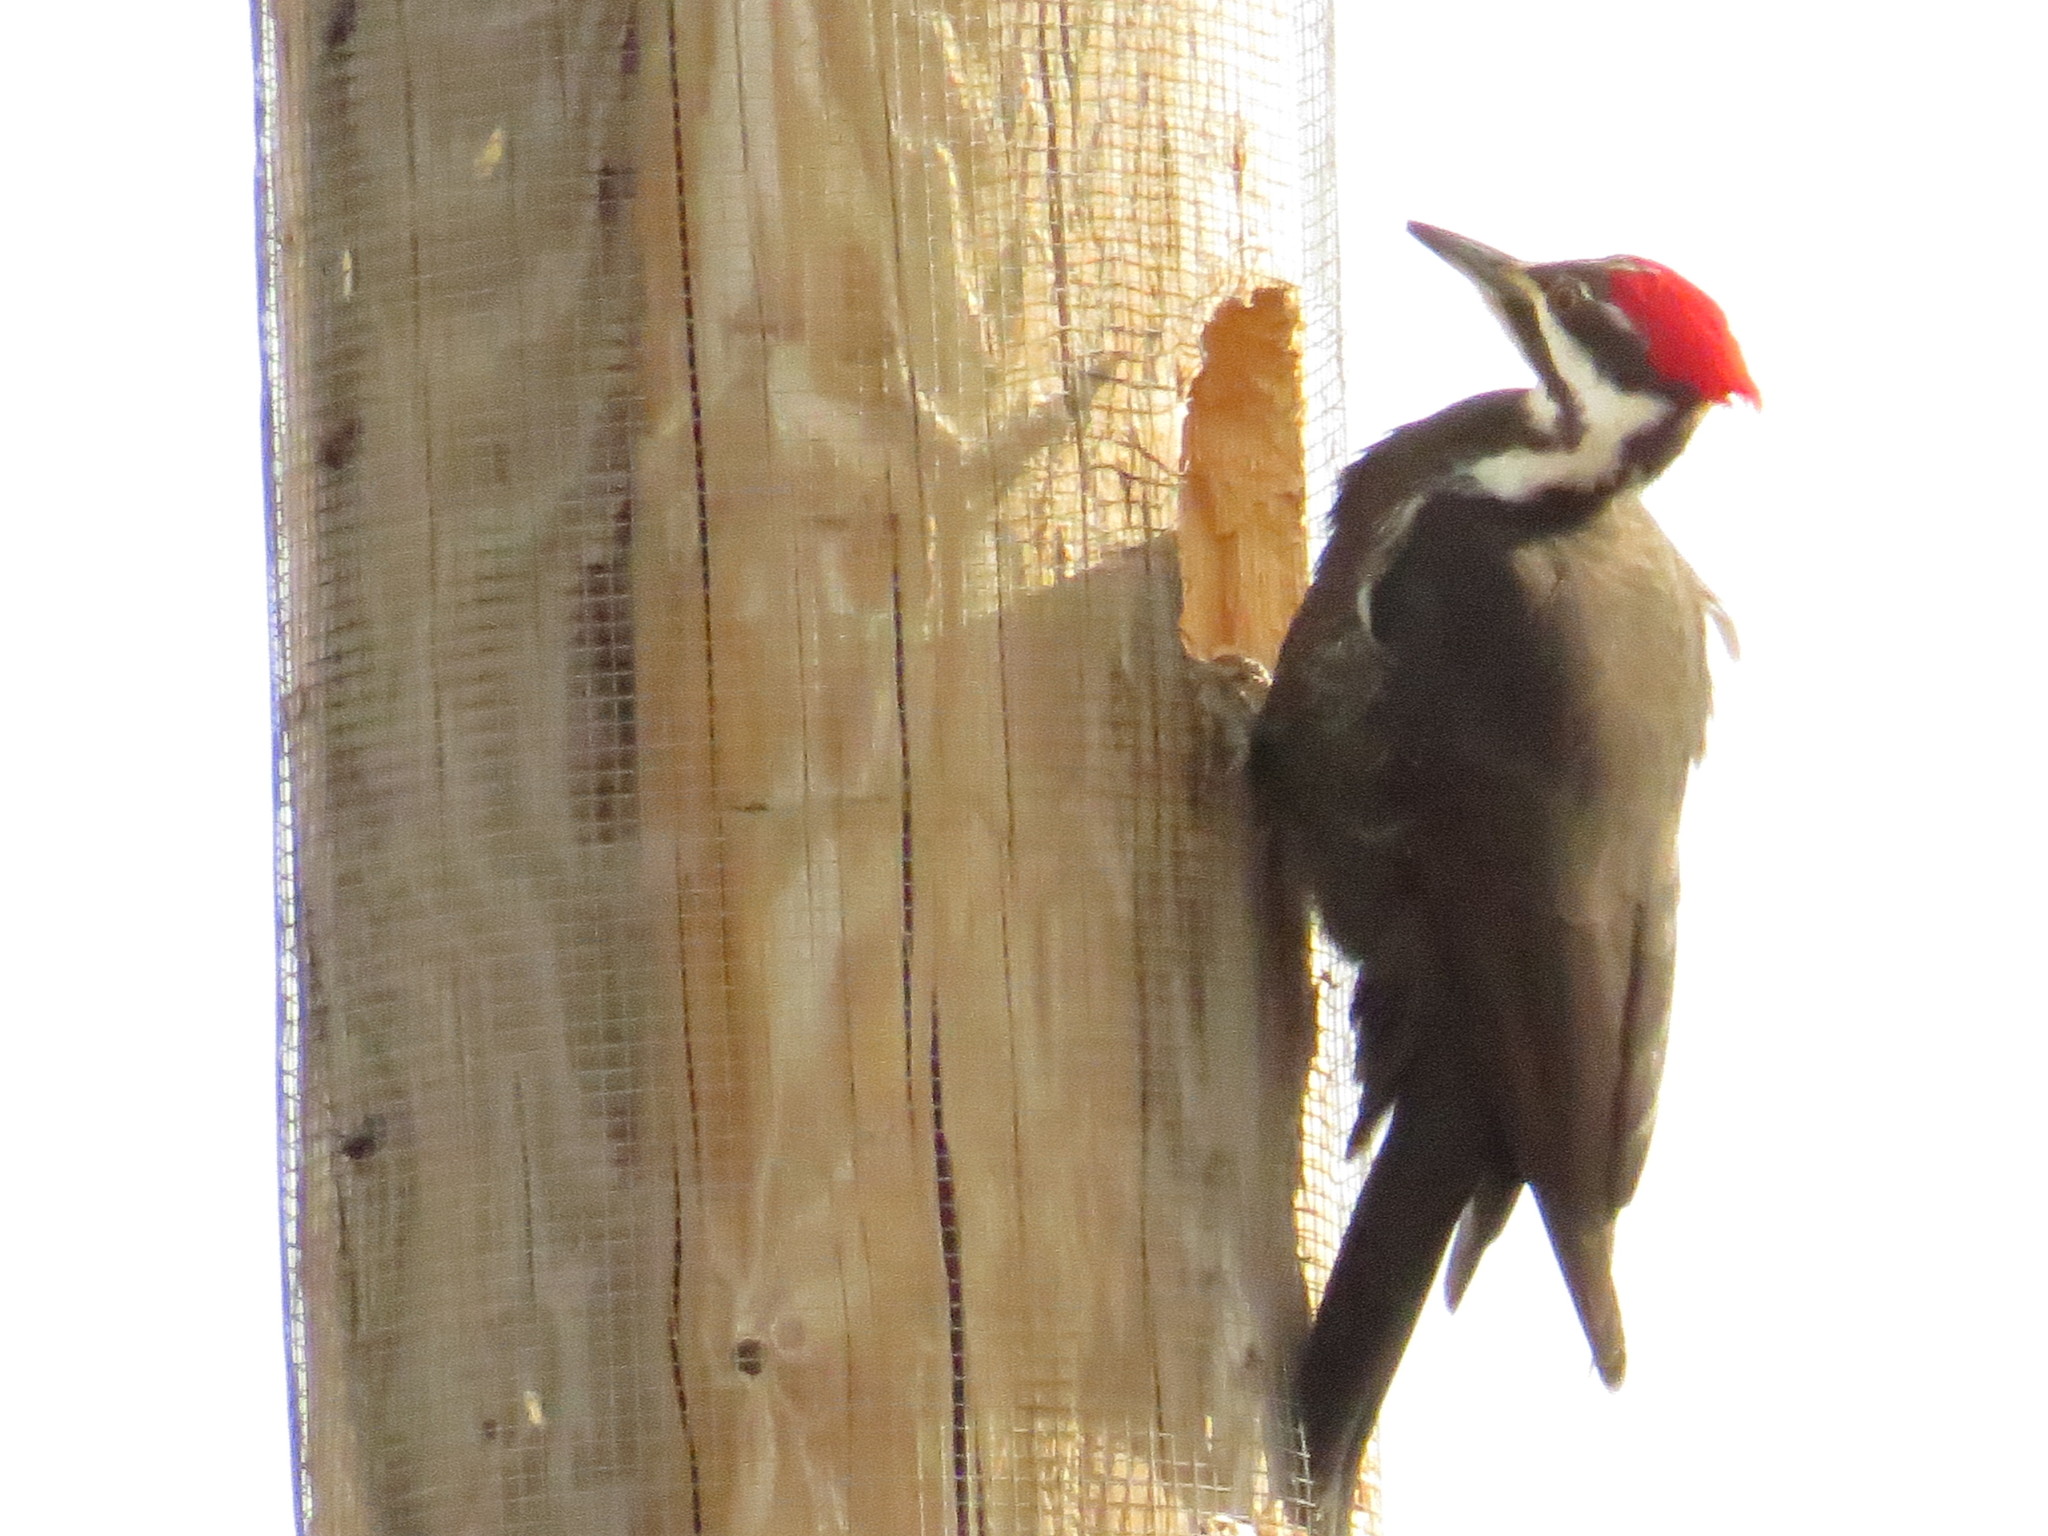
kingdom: Animalia
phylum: Chordata
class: Aves
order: Piciformes
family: Picidae
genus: Dryocopus
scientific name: Dryocopus pileatus
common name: Pileated woodpecker
